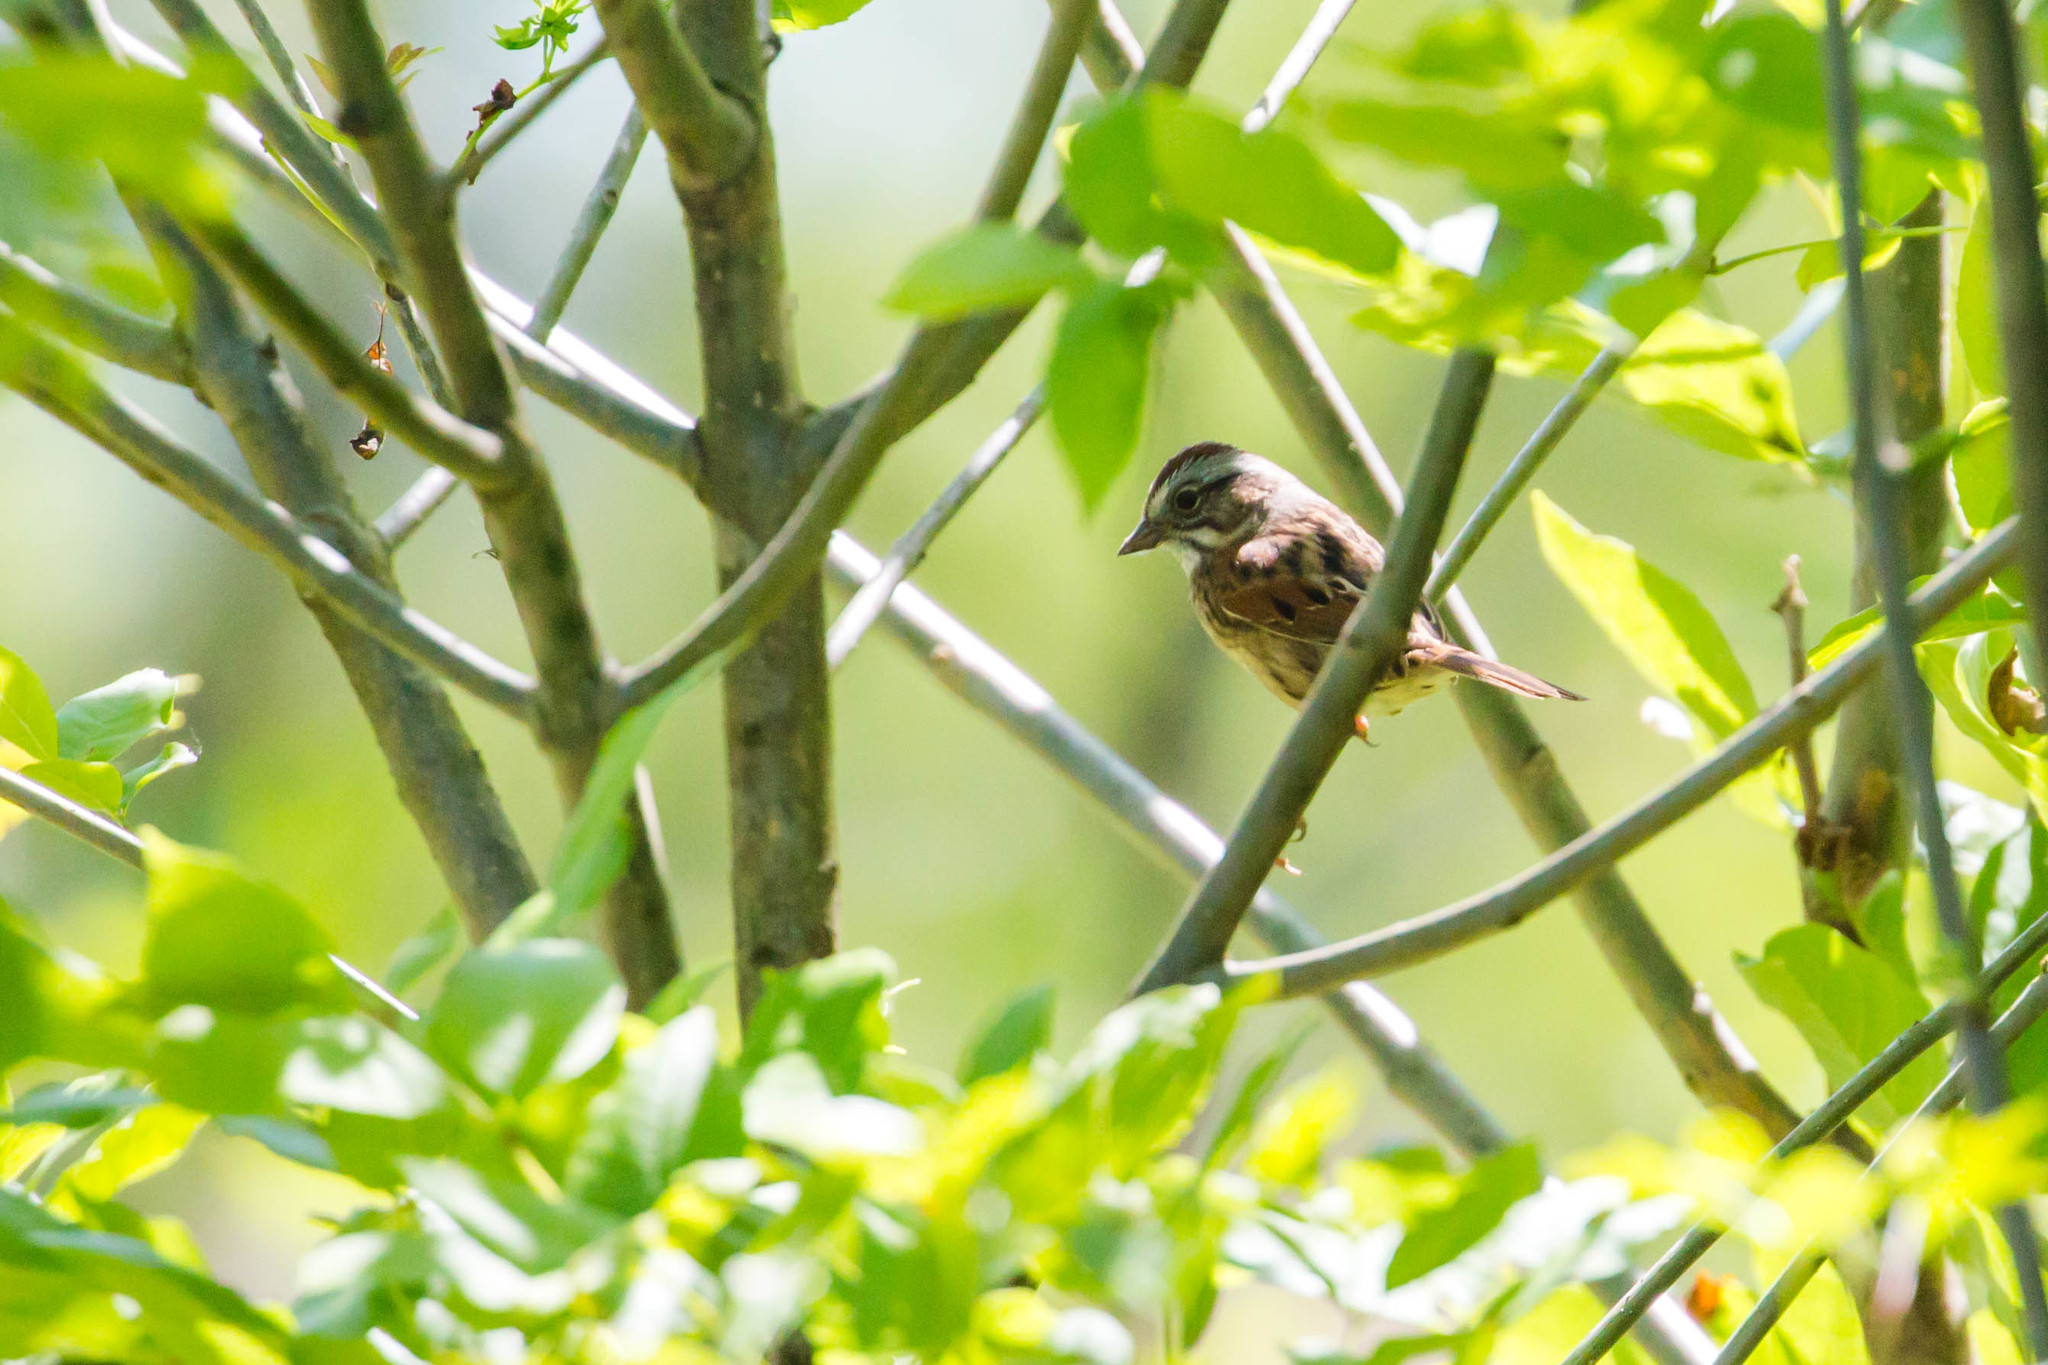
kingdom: Animalia
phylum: Chordata
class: Aves
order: Passeriformes
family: Passerellidae
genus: Melospiza
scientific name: Melospiza georgiana
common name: Swamp sparrow
